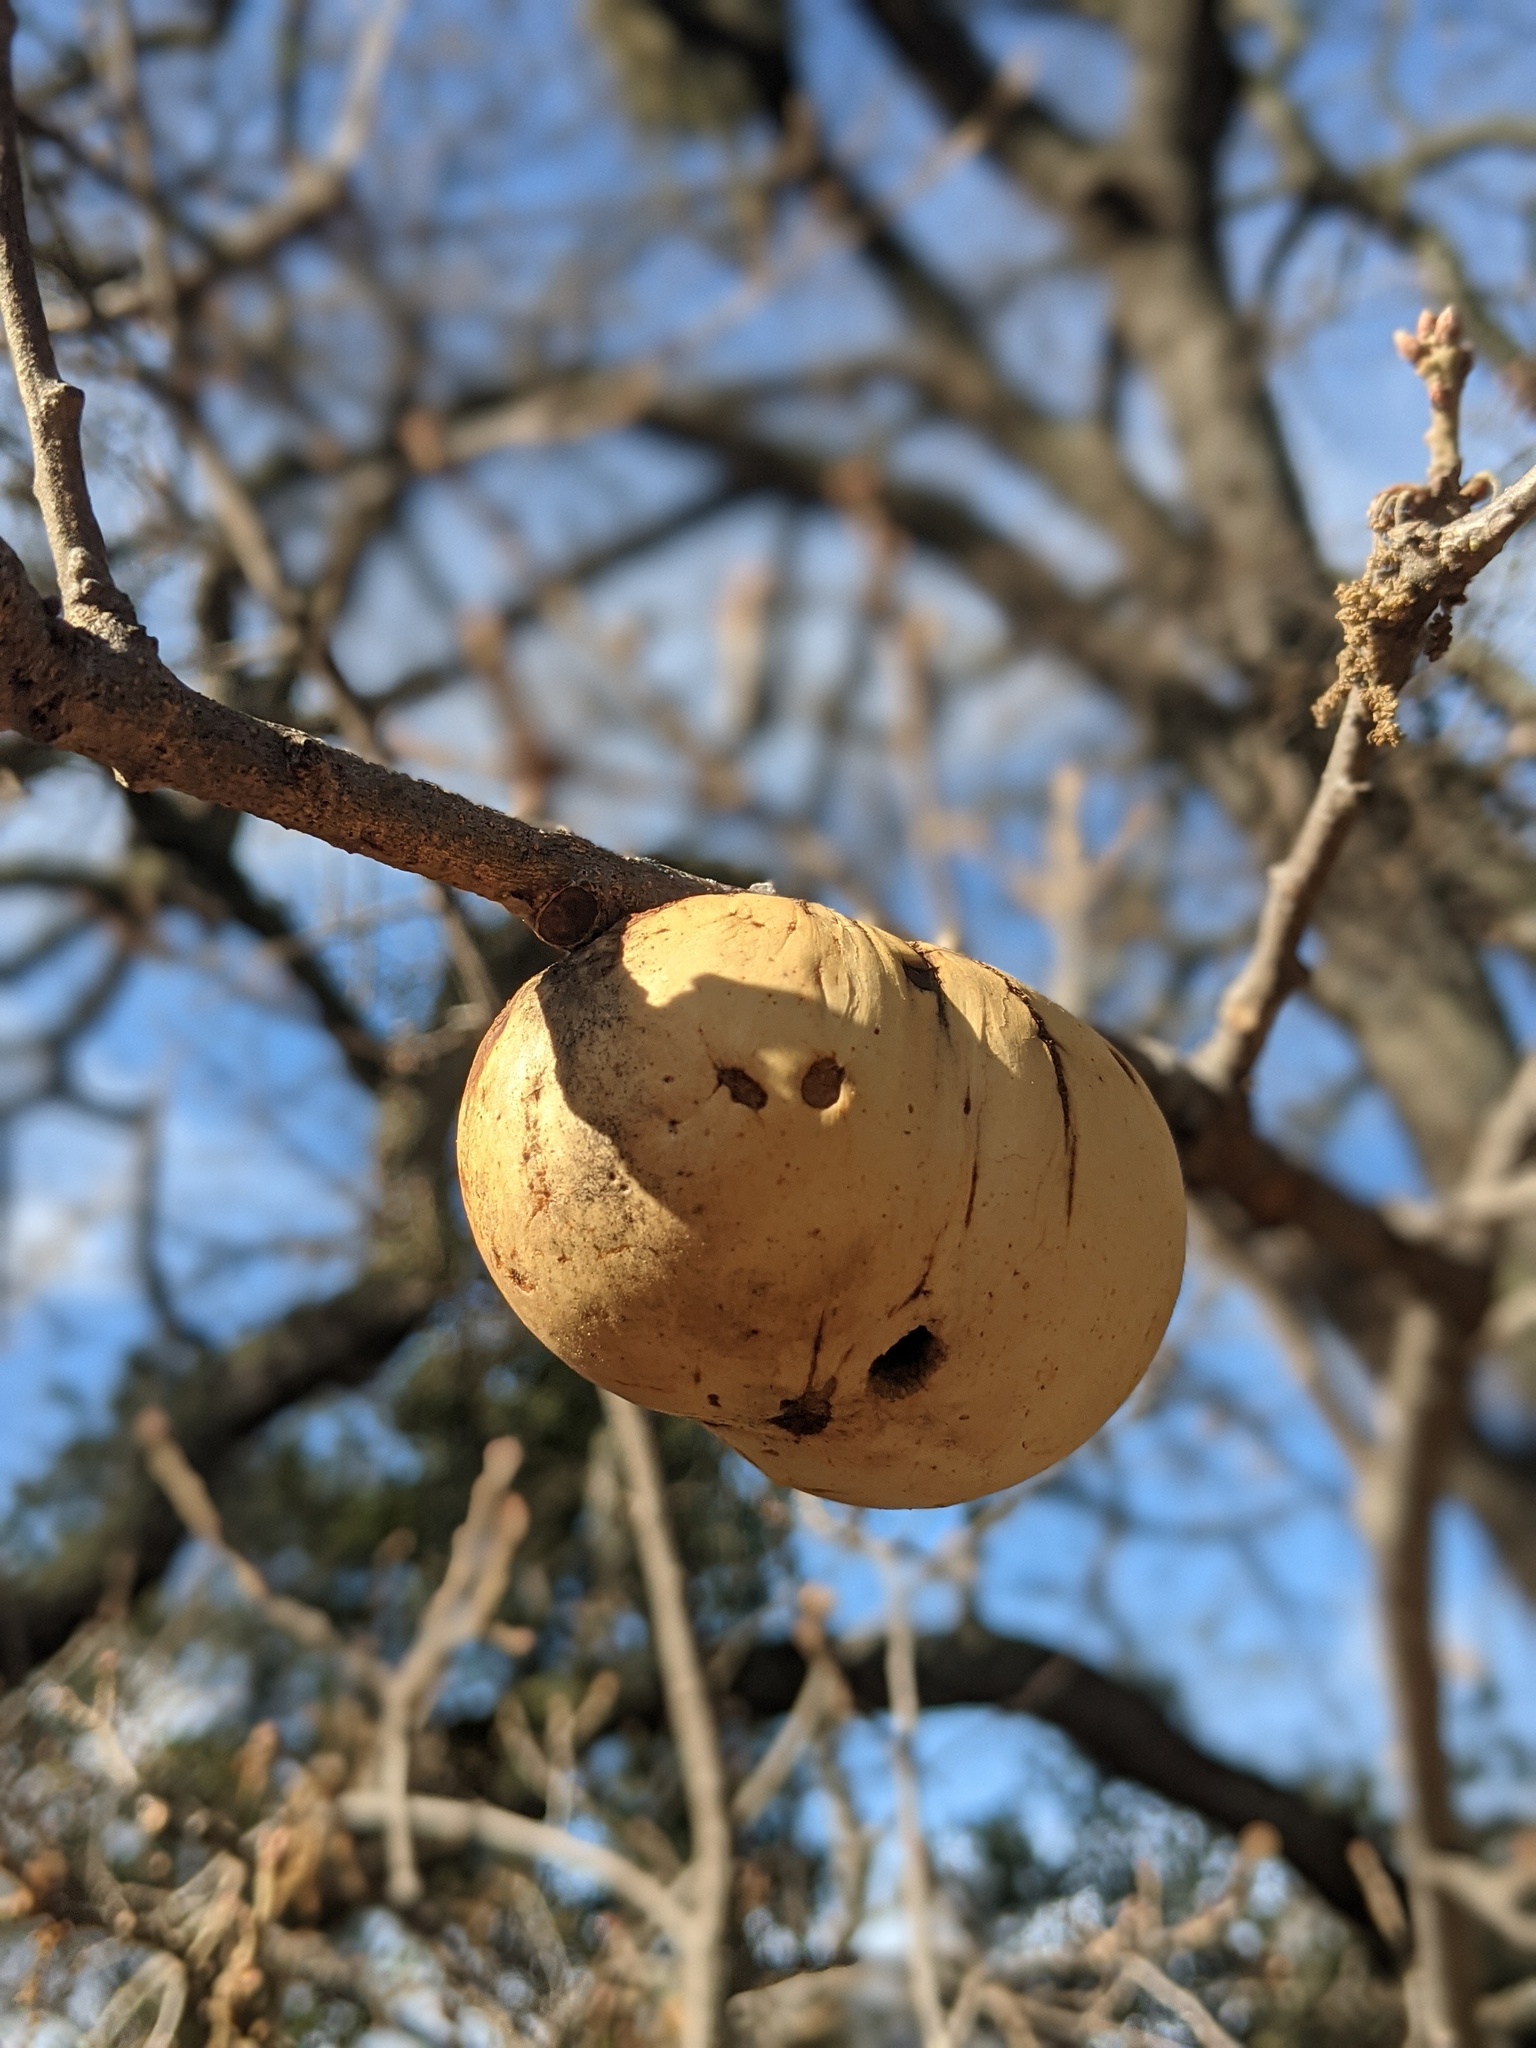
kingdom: Animalia
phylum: Arthropoda
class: Insecta
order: Hymenoptera
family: Cynipidae
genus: Andricus
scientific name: Andricus quercuscalifornicus
